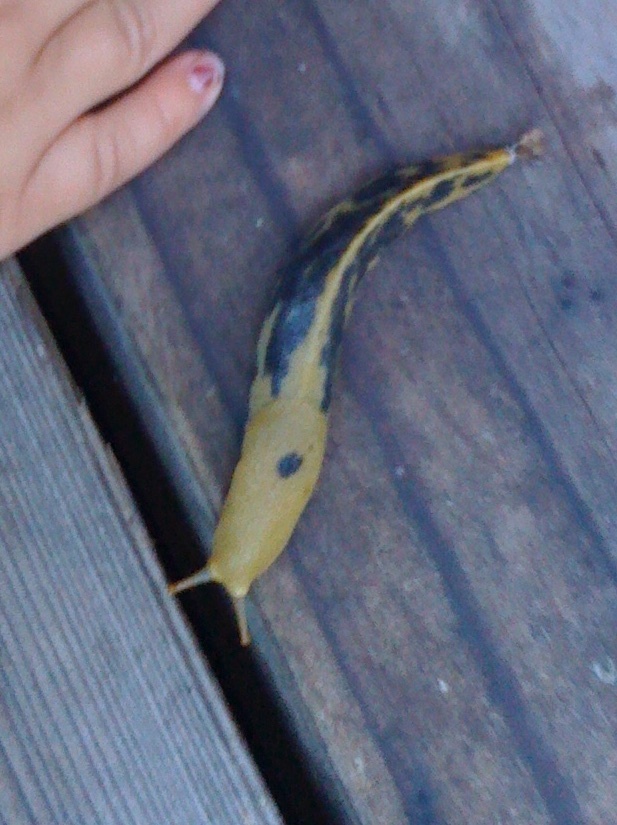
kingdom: Animalia
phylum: Mollusca
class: Gastropoda
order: Stylommatophora
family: Ariolimacidae
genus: Ariolimax
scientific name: Ariolimax buttoni
